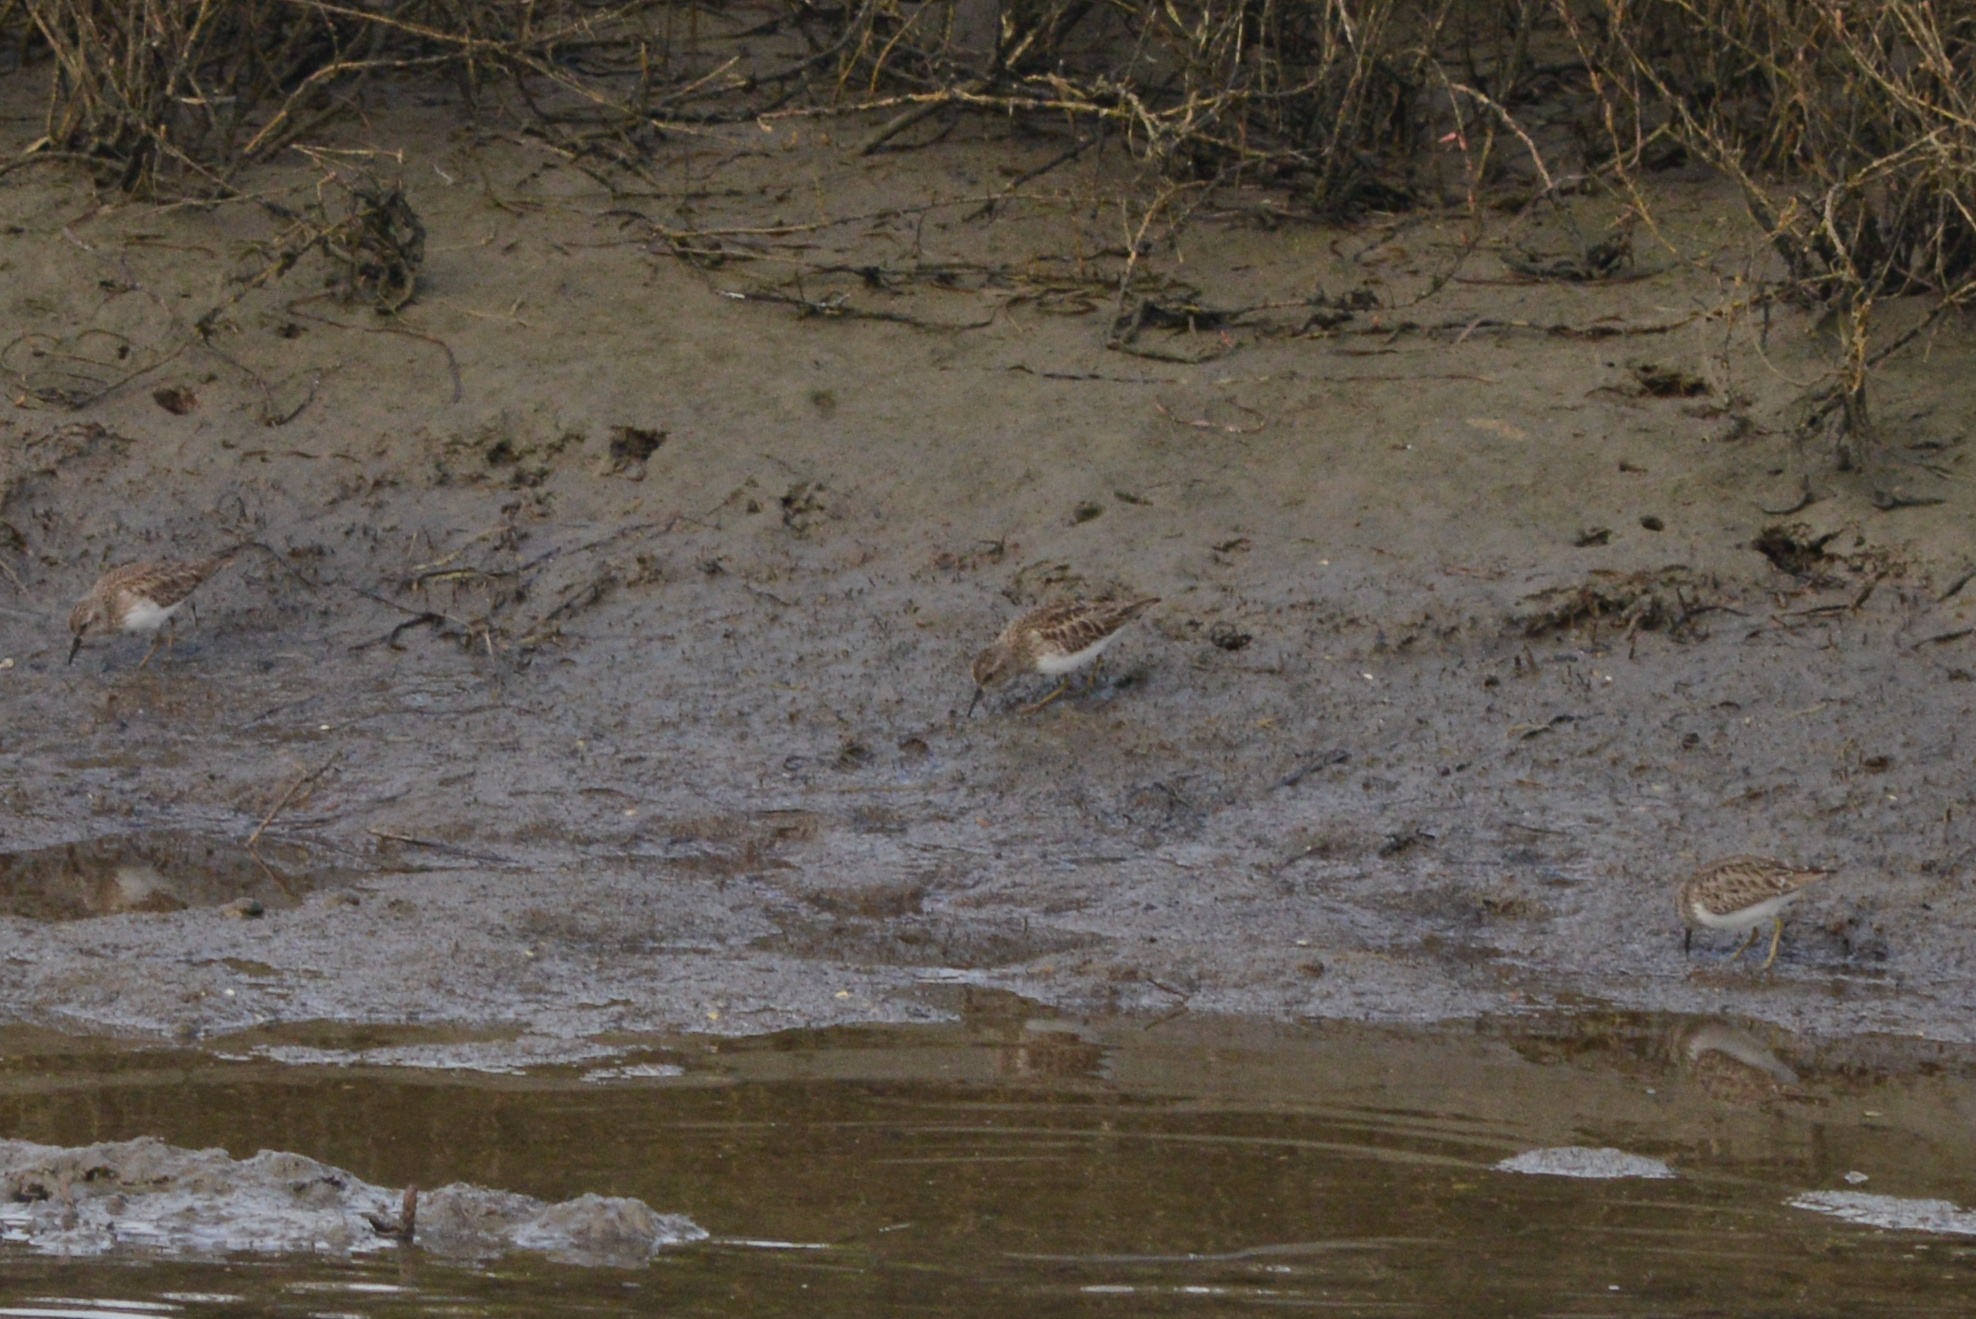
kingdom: Animalia
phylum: Chordata
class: Aves
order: Charadriiformes
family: Scolopacidae
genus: Calidris
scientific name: Calidris minutilla
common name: Least sandpiper
